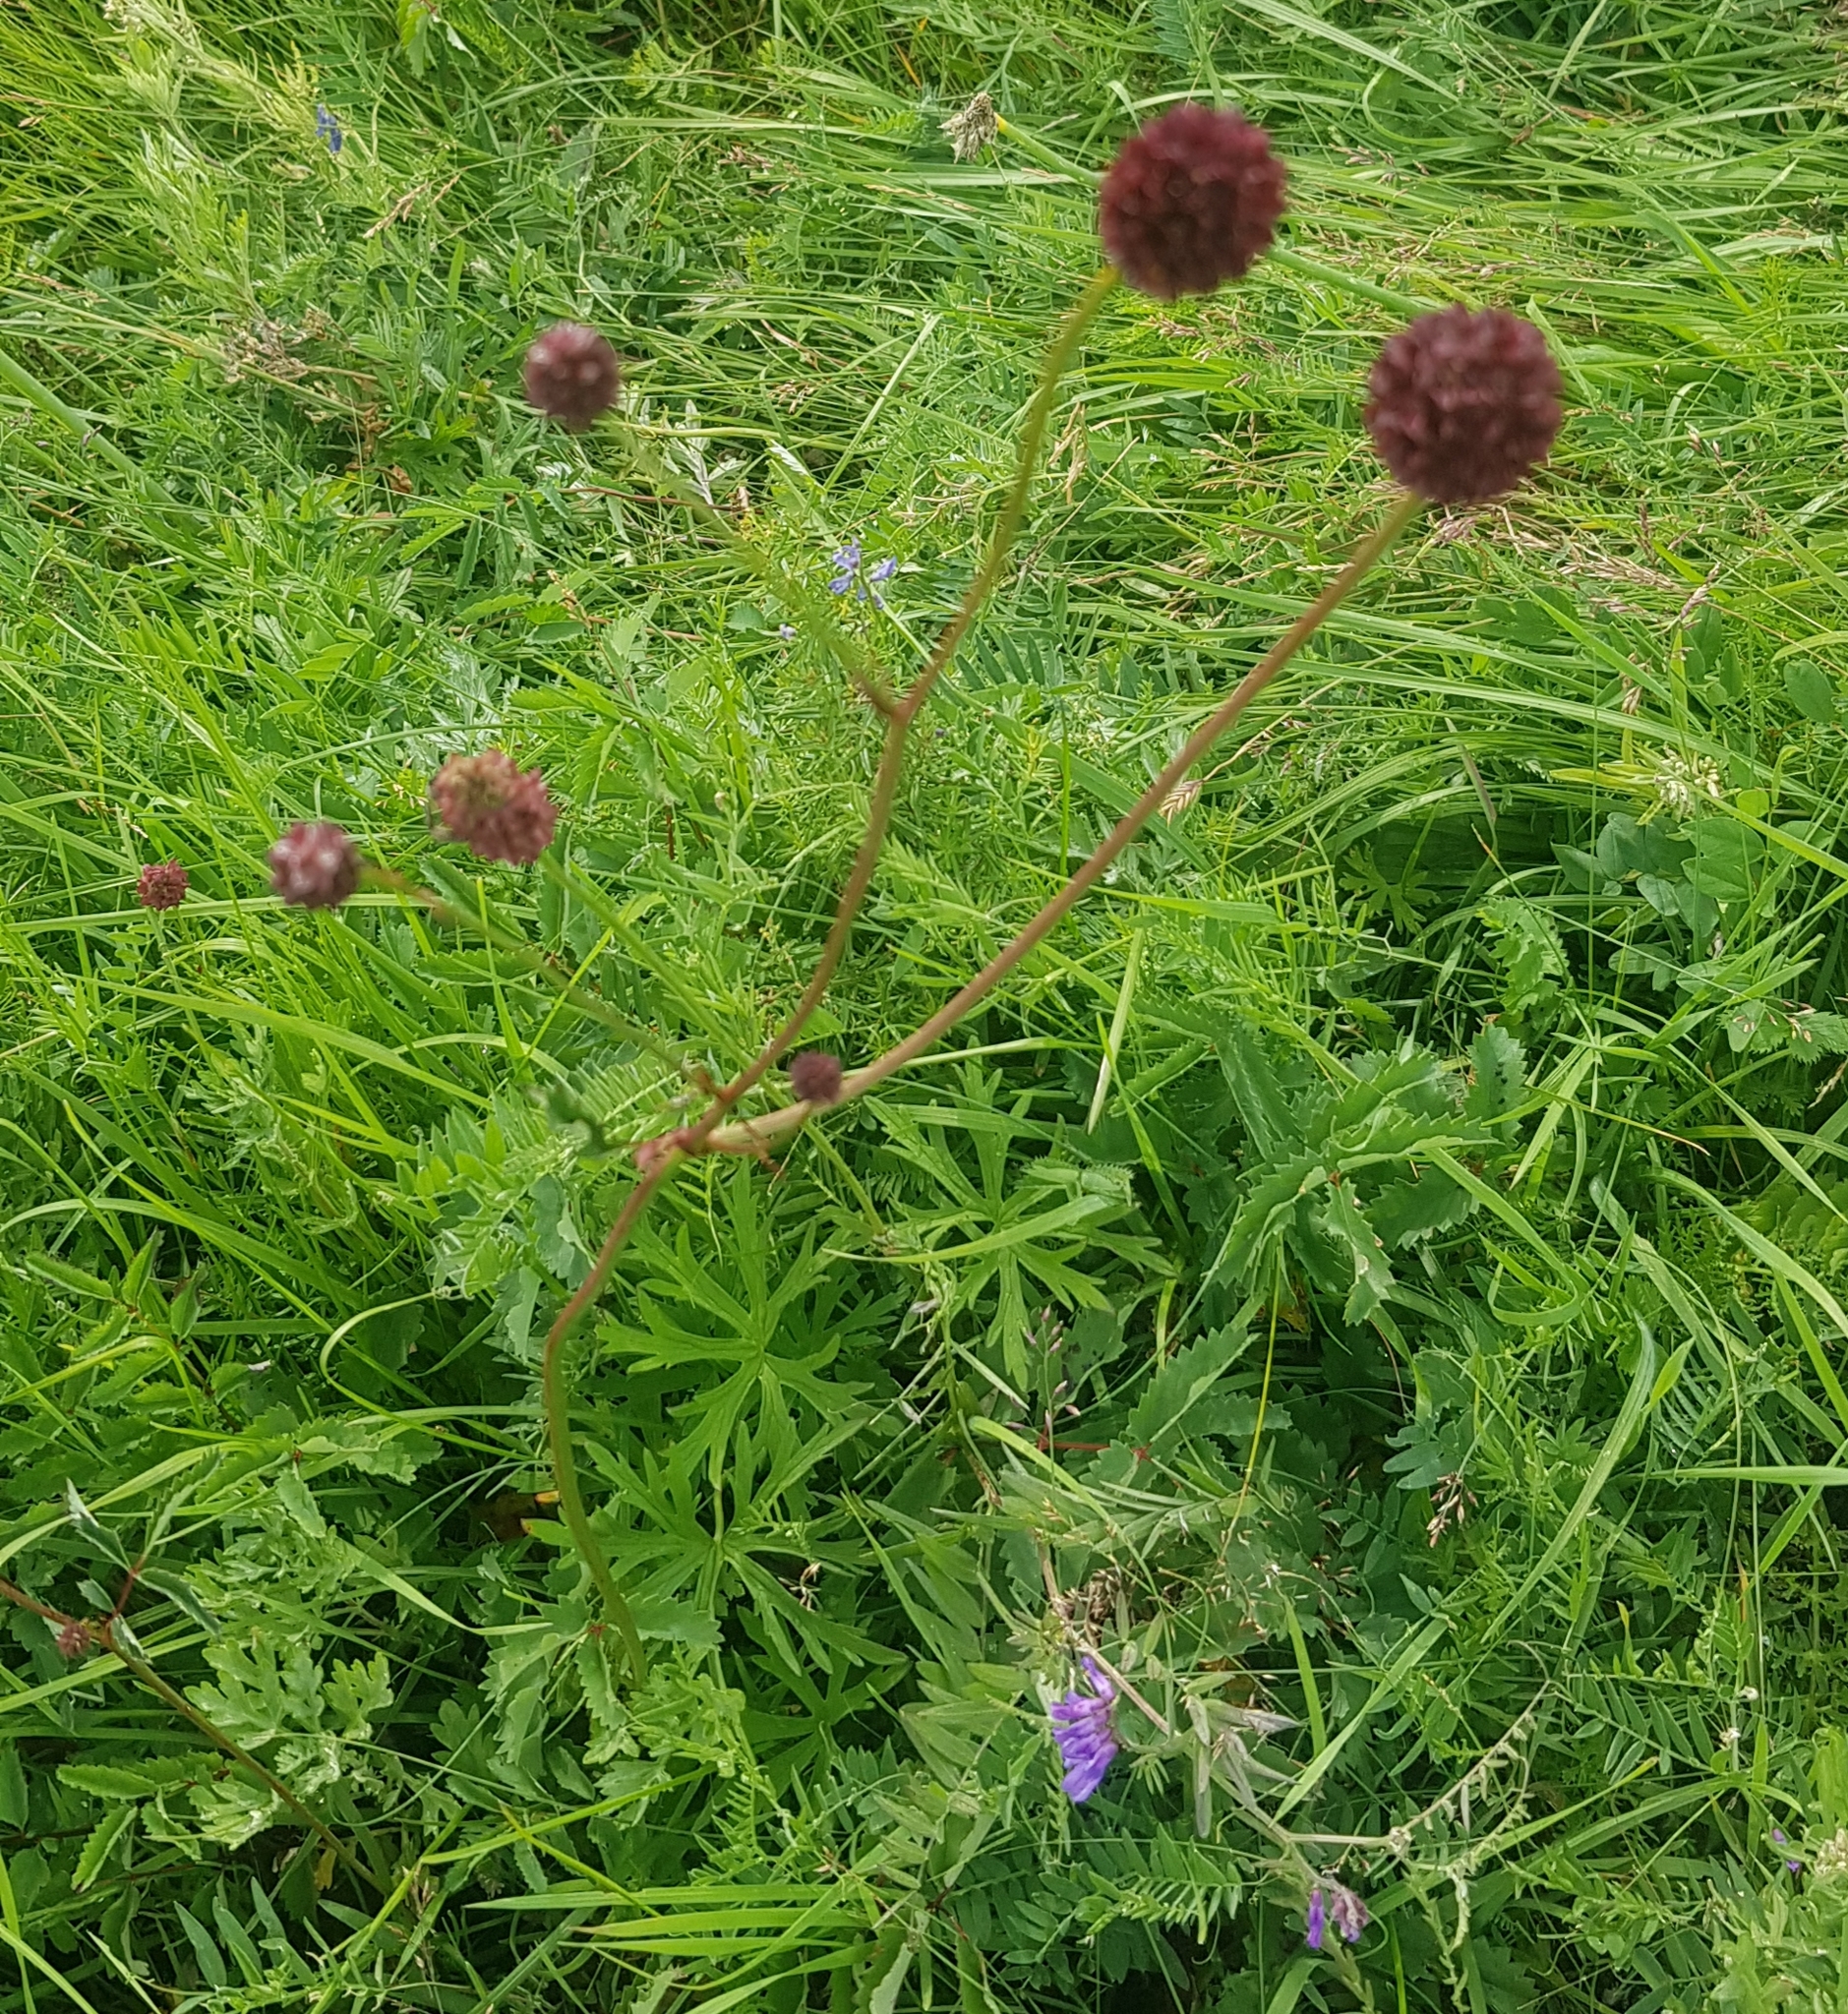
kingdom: Plantae
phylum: Tracheophyta
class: Magnoliopsida
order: Rosales
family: Rosaceae
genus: Sanguisorba
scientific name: Sanguisorba officinalis
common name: Great burnet
